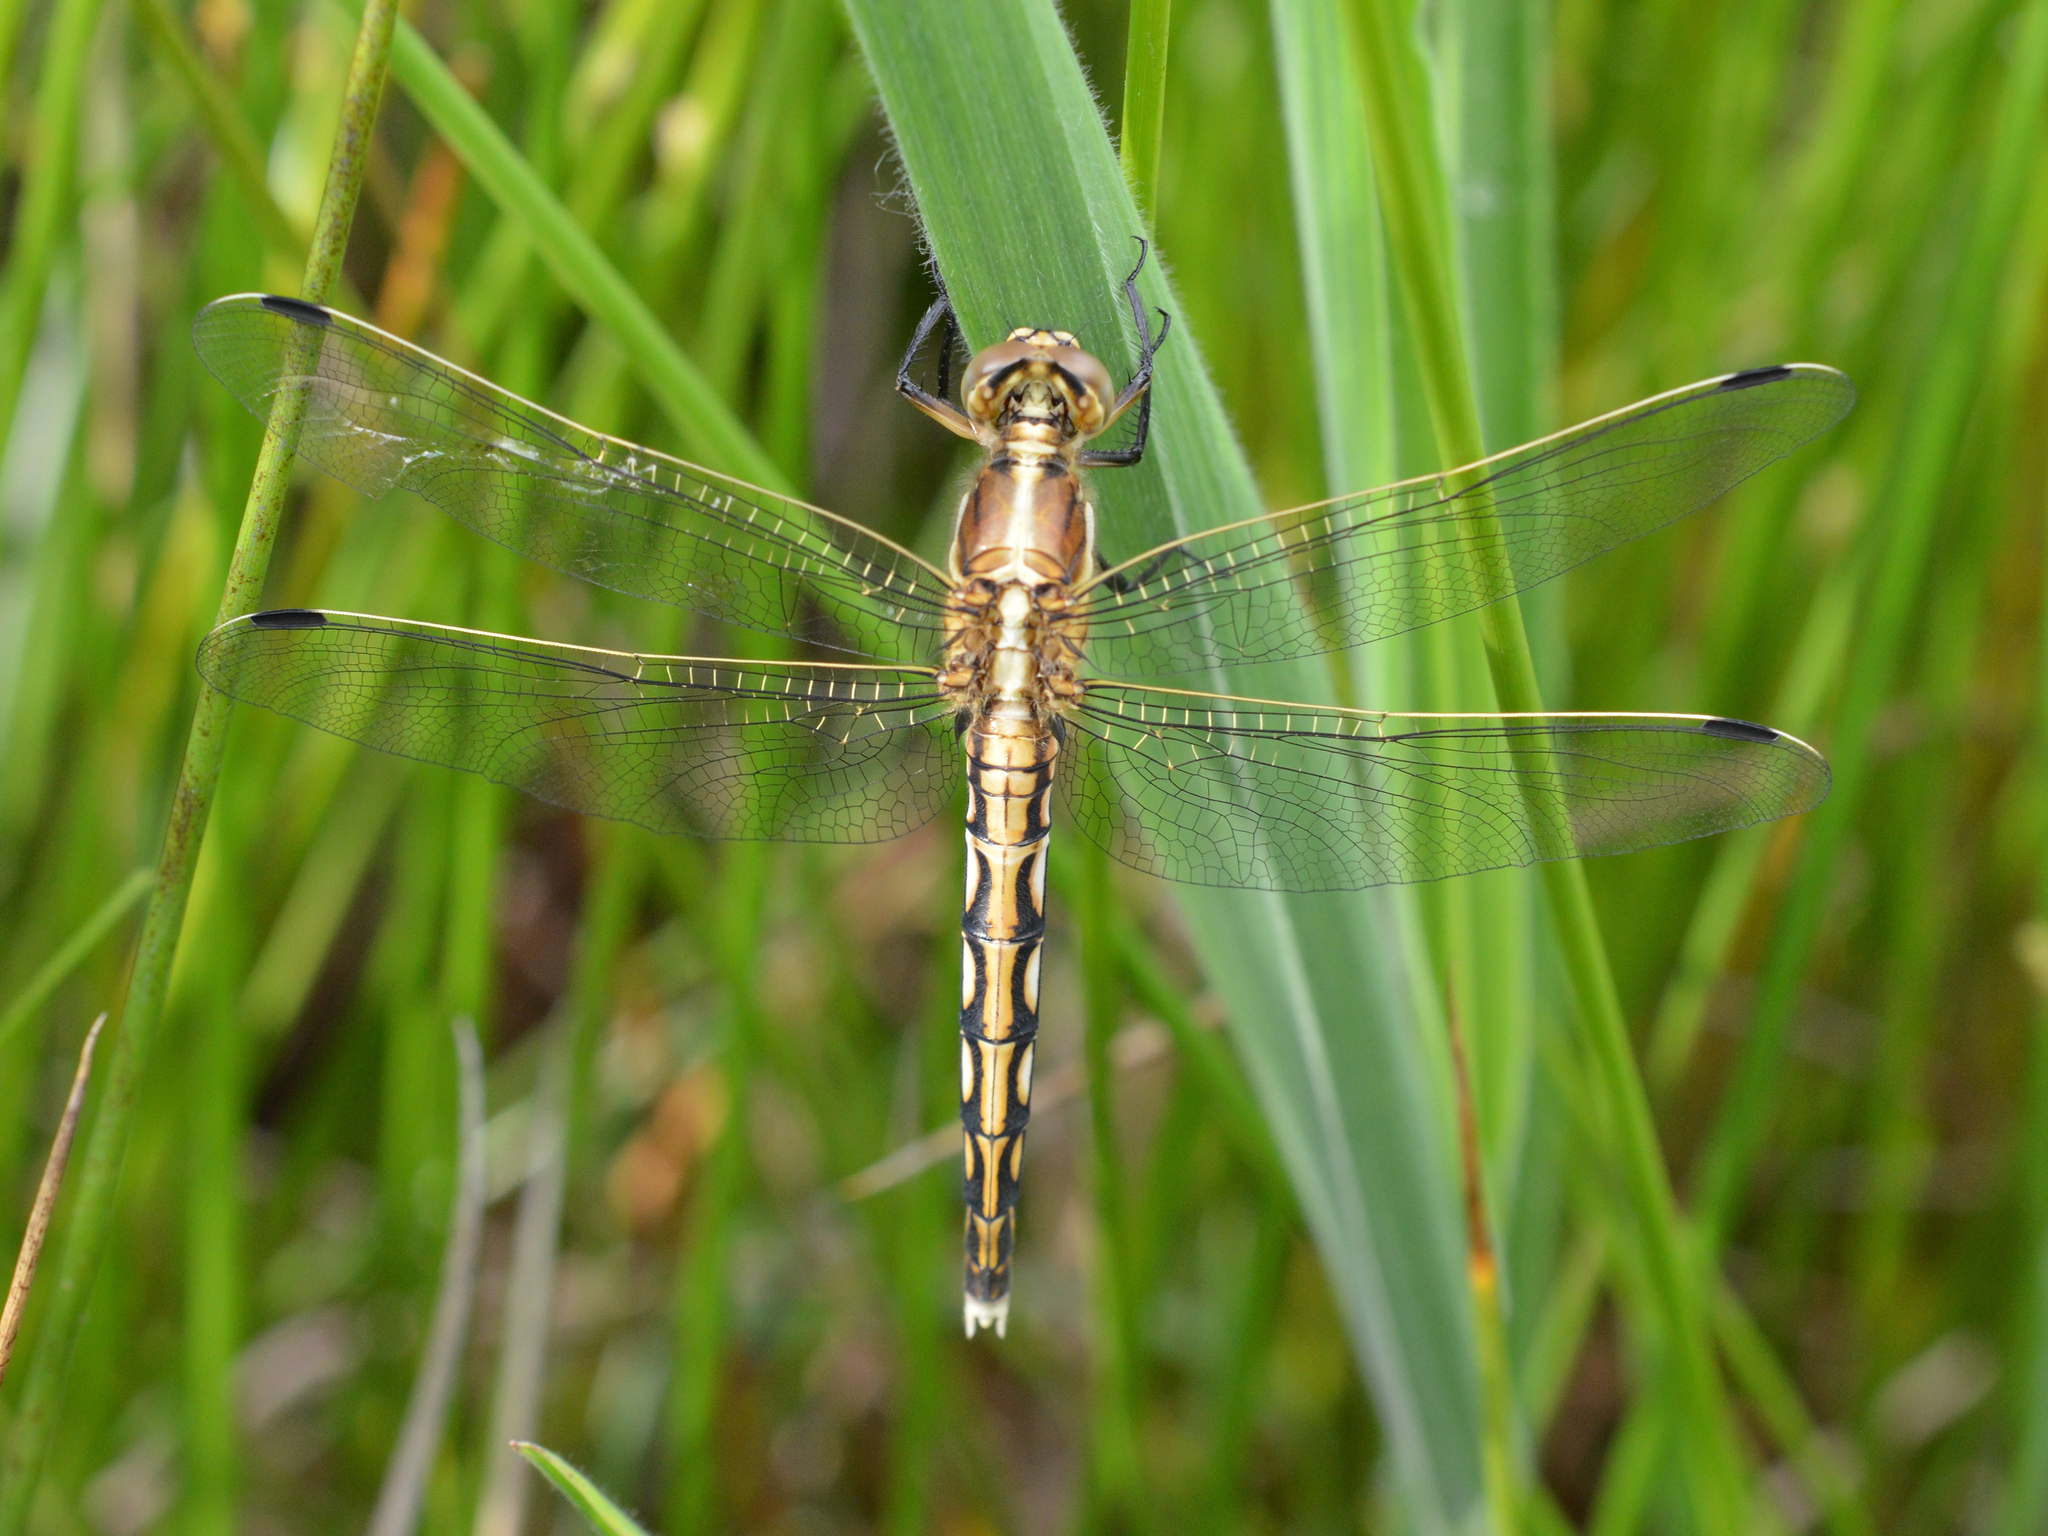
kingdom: Animalia
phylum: Arthropoda
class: Insecta
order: Odonata
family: Libellulidae
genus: Orthetrum
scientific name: Orthetrum albistylum
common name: White-tailed skimmer
